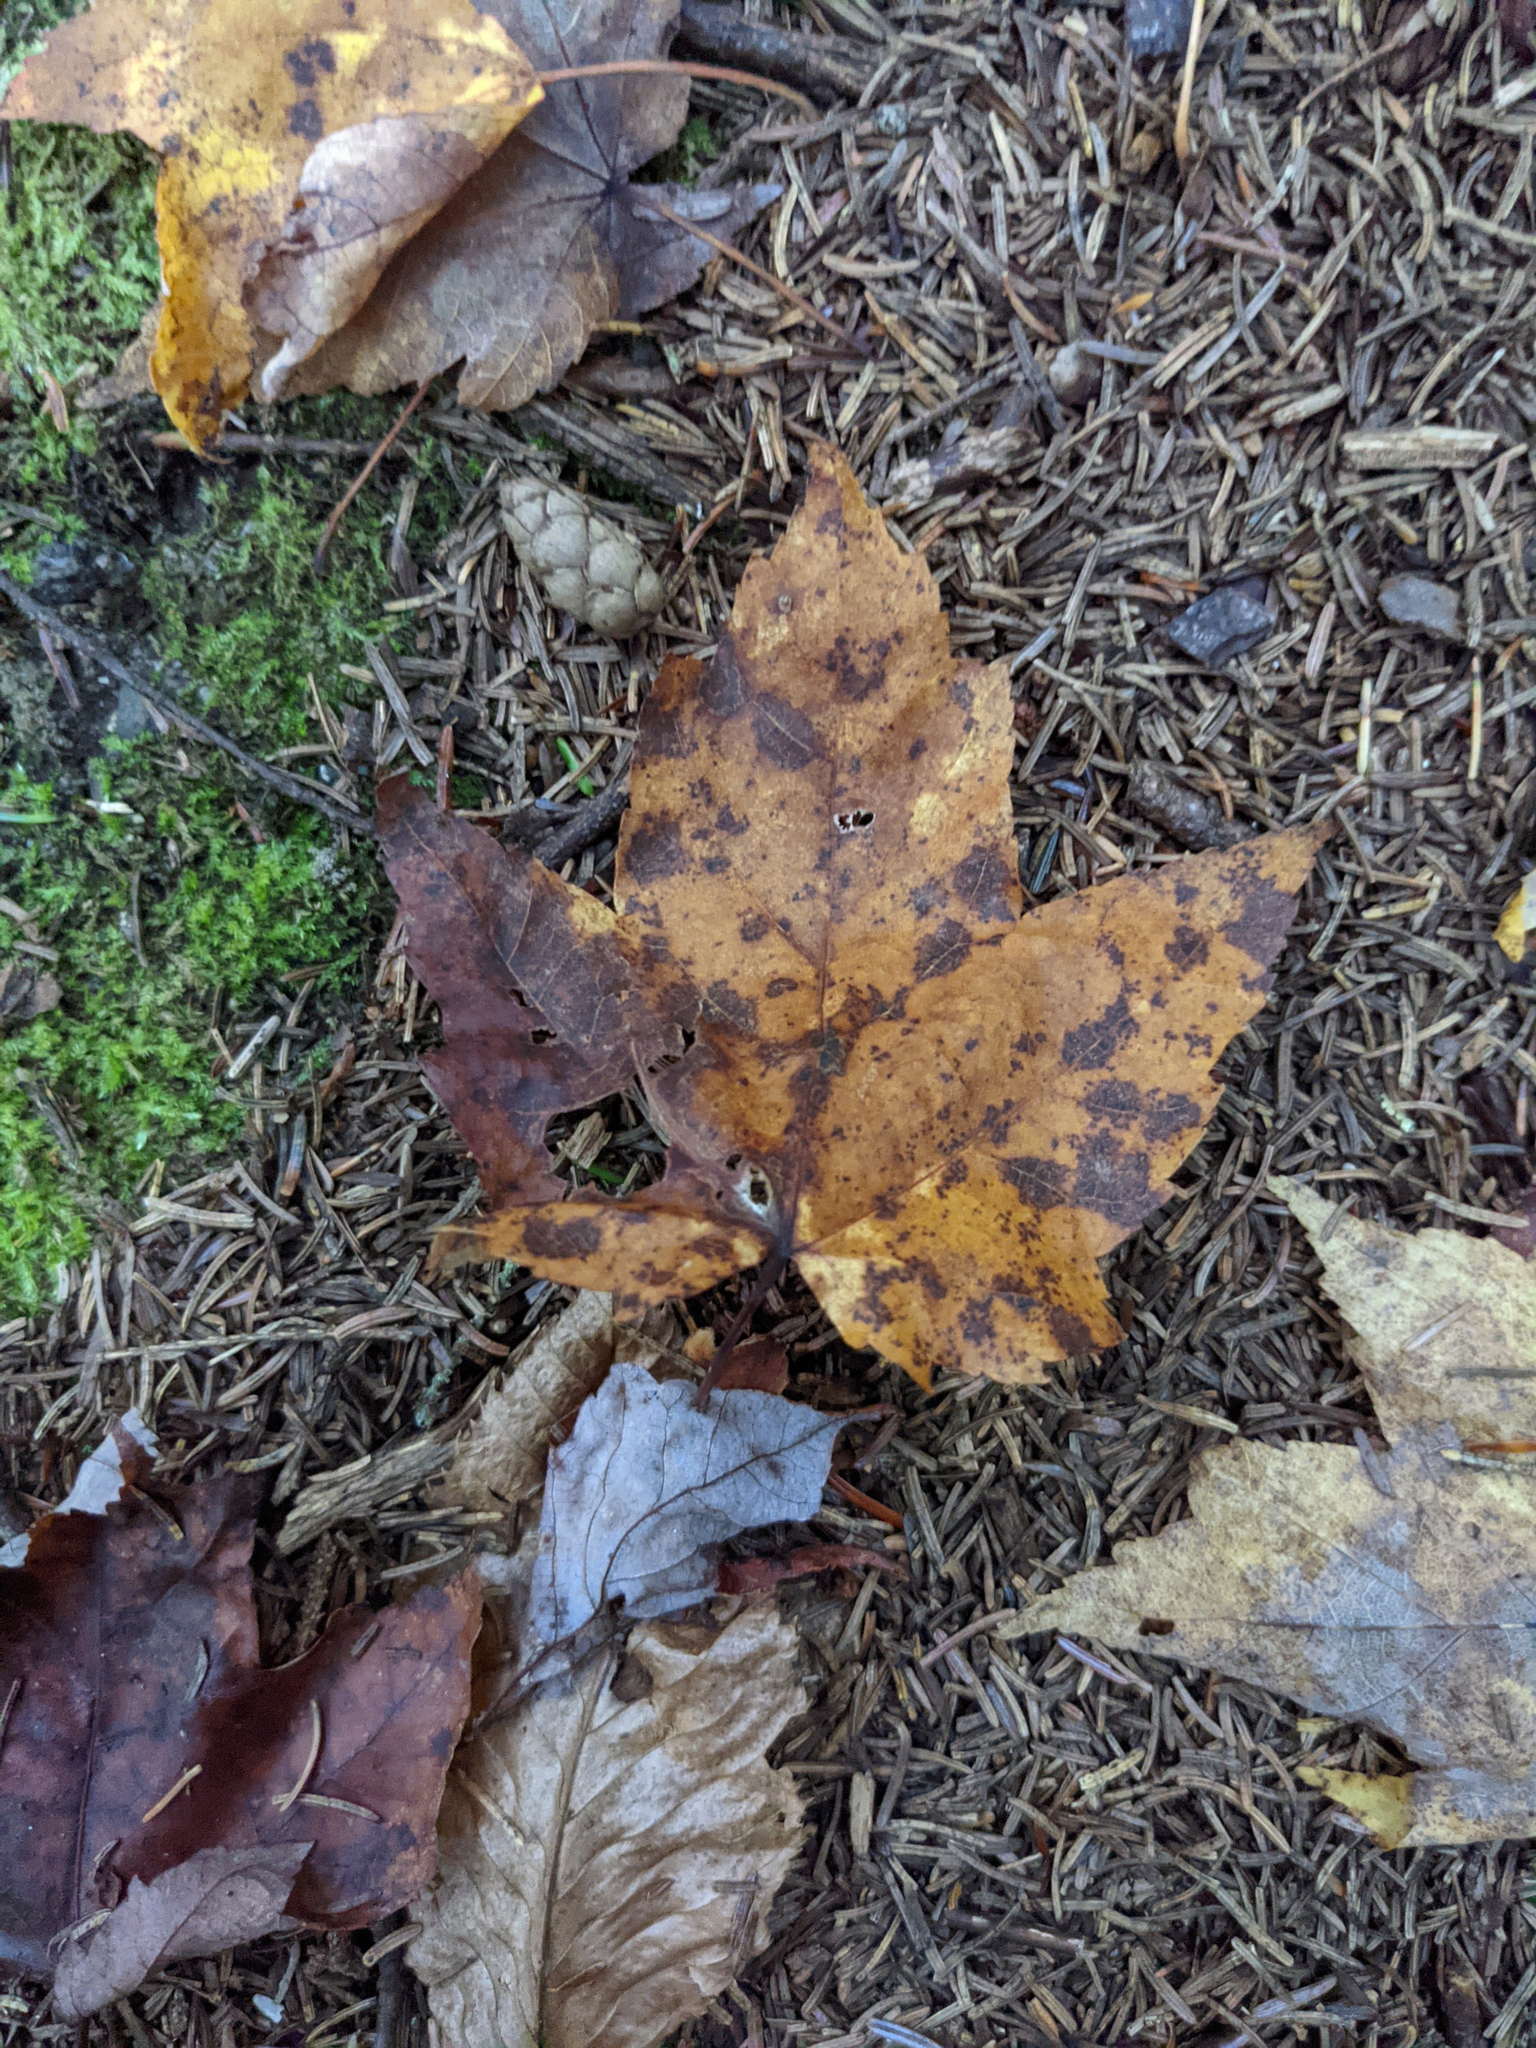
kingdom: Plantae
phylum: Tracheophyta
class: Magnoliopsida
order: Sapindales
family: Sapindaceae
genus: Acer
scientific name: Acer rubrum
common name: Red maple
